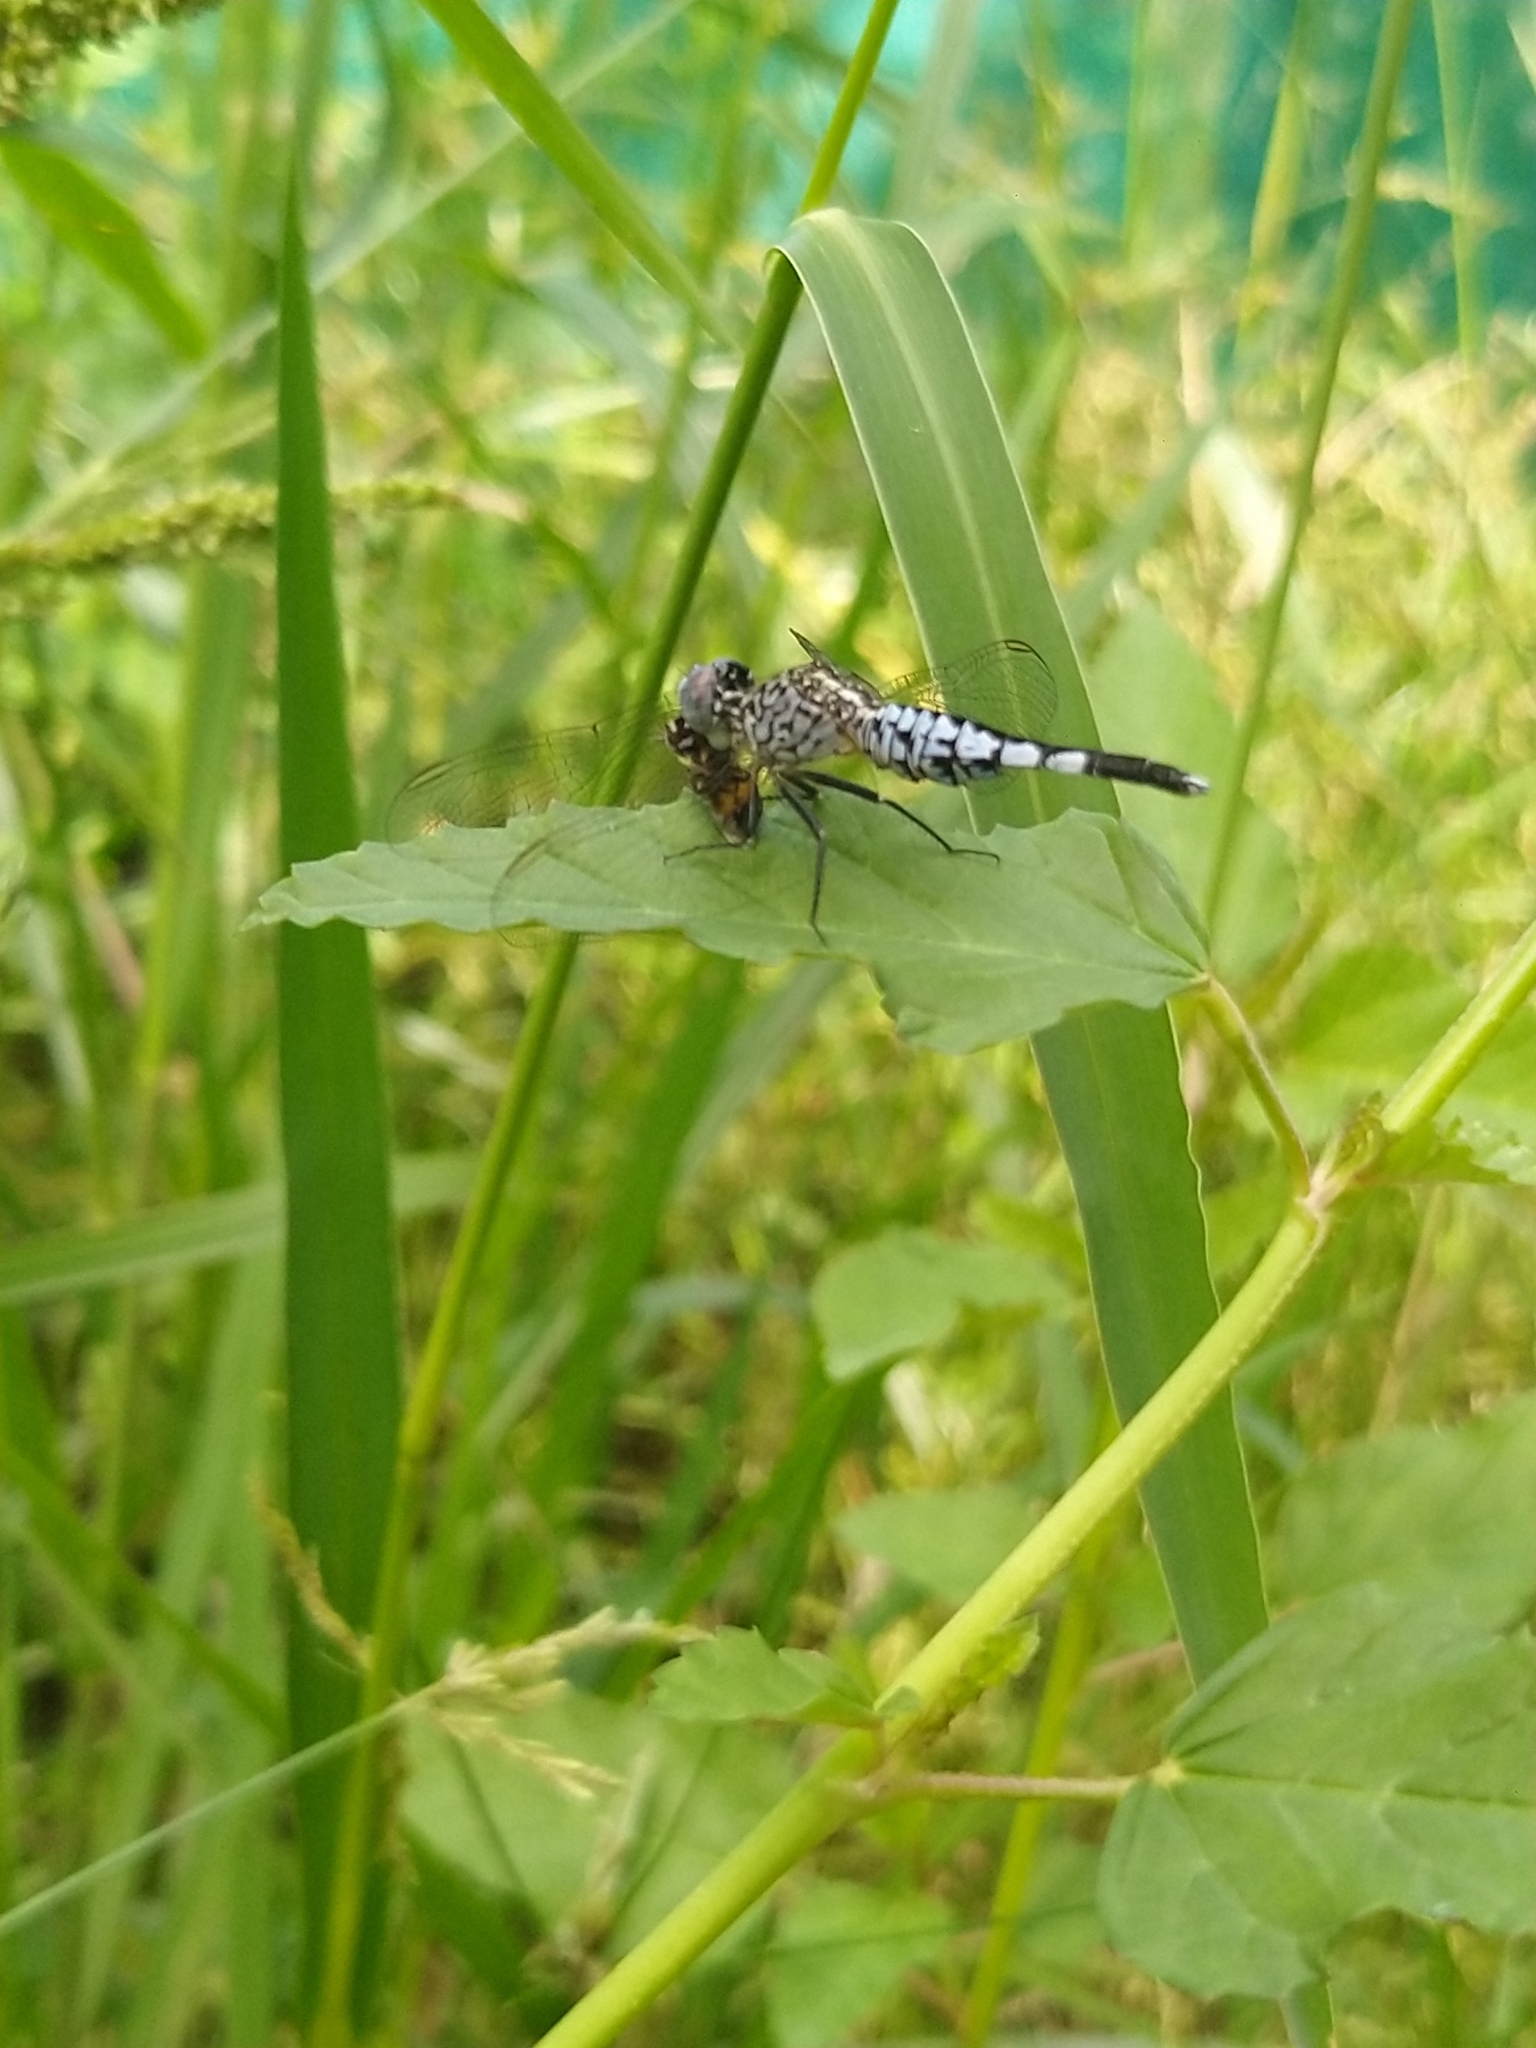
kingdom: Animalia
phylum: Arthropoda
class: Insecta
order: Odonata
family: Libellulidae
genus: Acisoma
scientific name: Acisoma panorpoides
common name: Asian pintail
